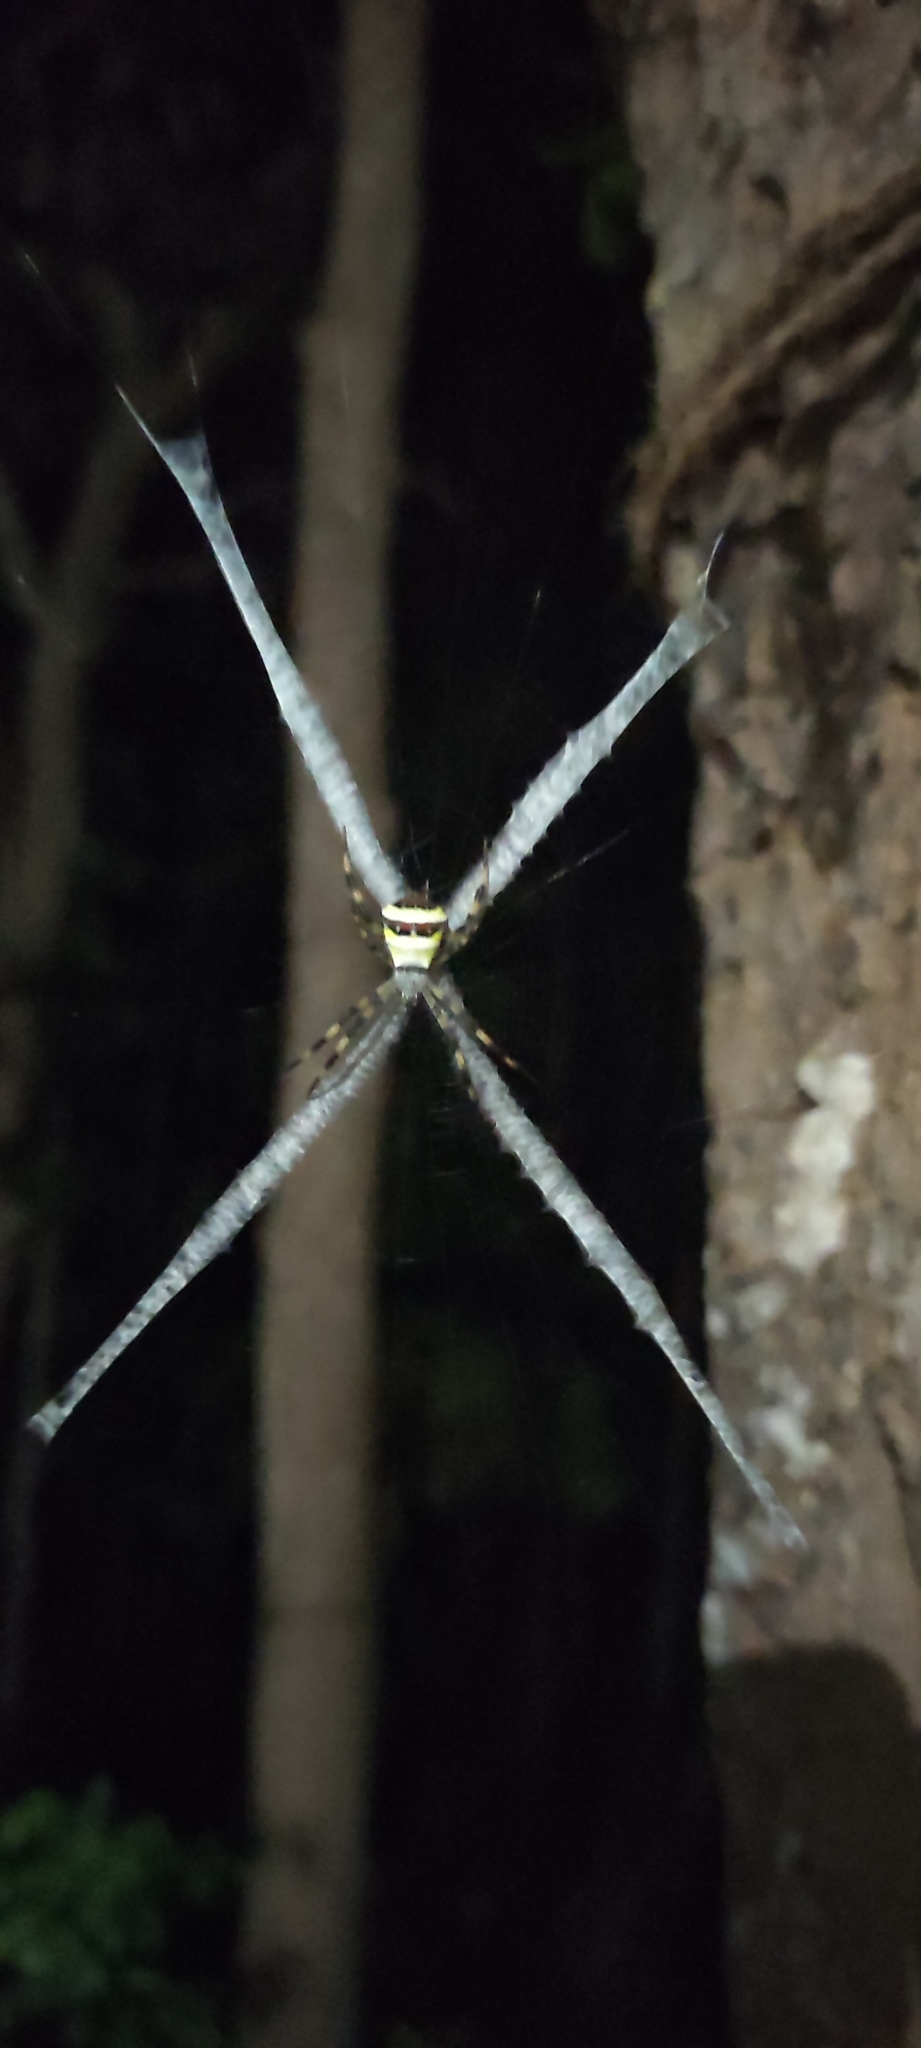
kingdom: Animalia
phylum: Arthropoda
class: Arachnida
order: Araneae
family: Araneidae
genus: Argiope
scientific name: Argiope pulchella
